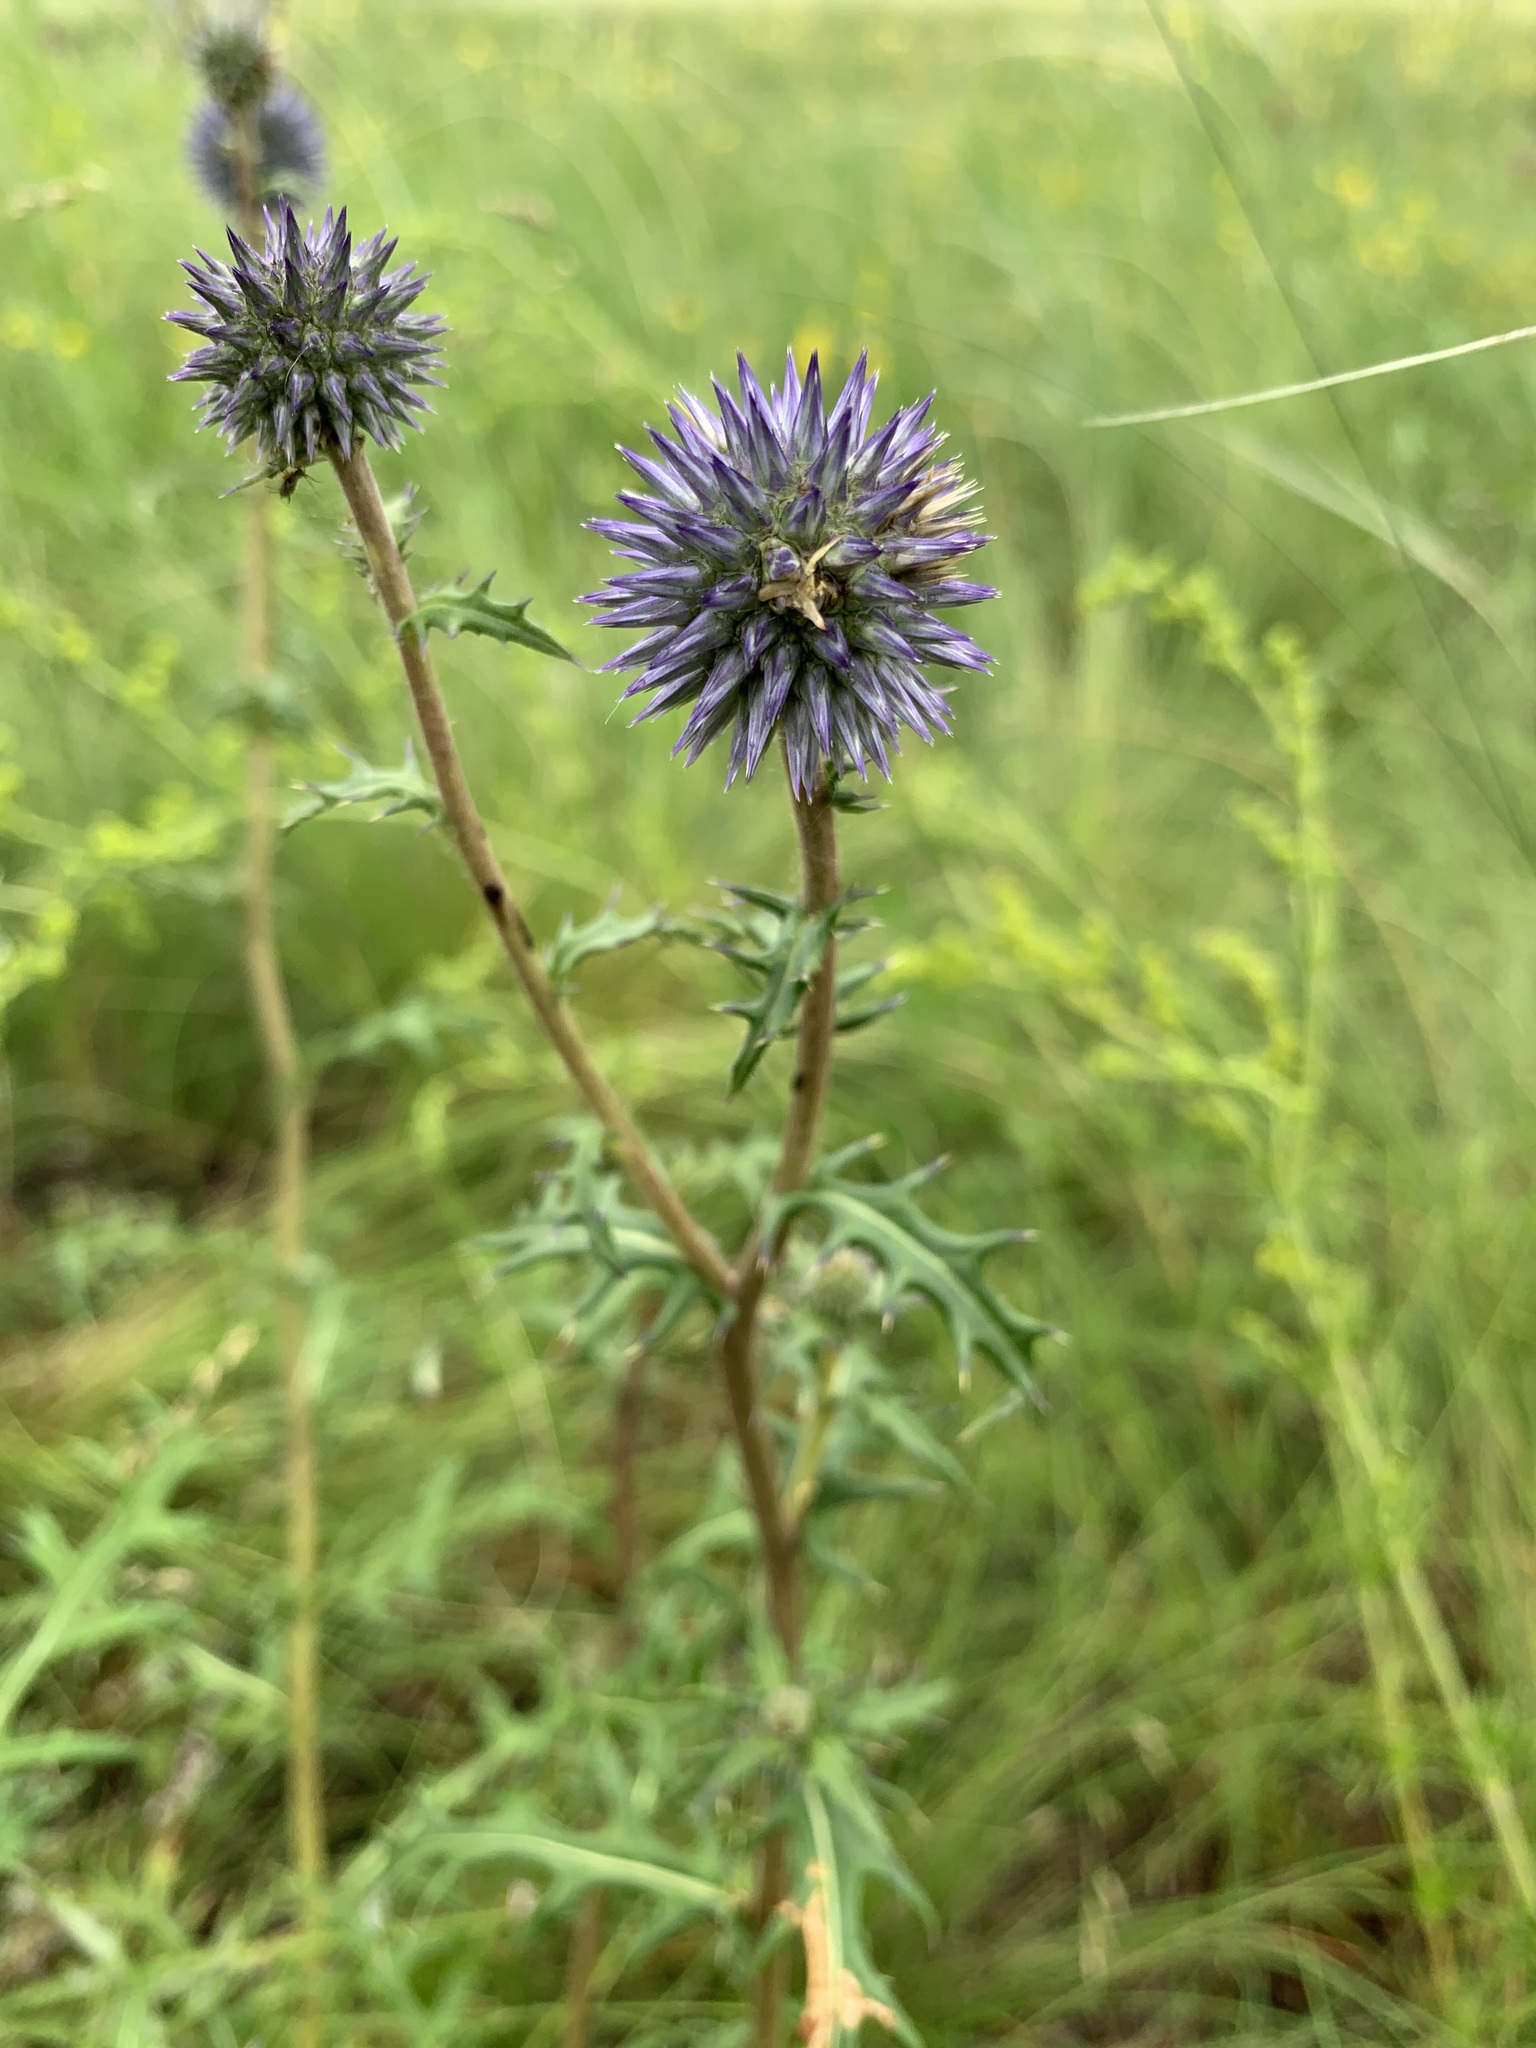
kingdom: Plantae
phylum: Tracheophyta
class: Magnoliopsida
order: Asterales
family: Asteraceae
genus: Echinops
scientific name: Echinops ritro
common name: Globe thistle
